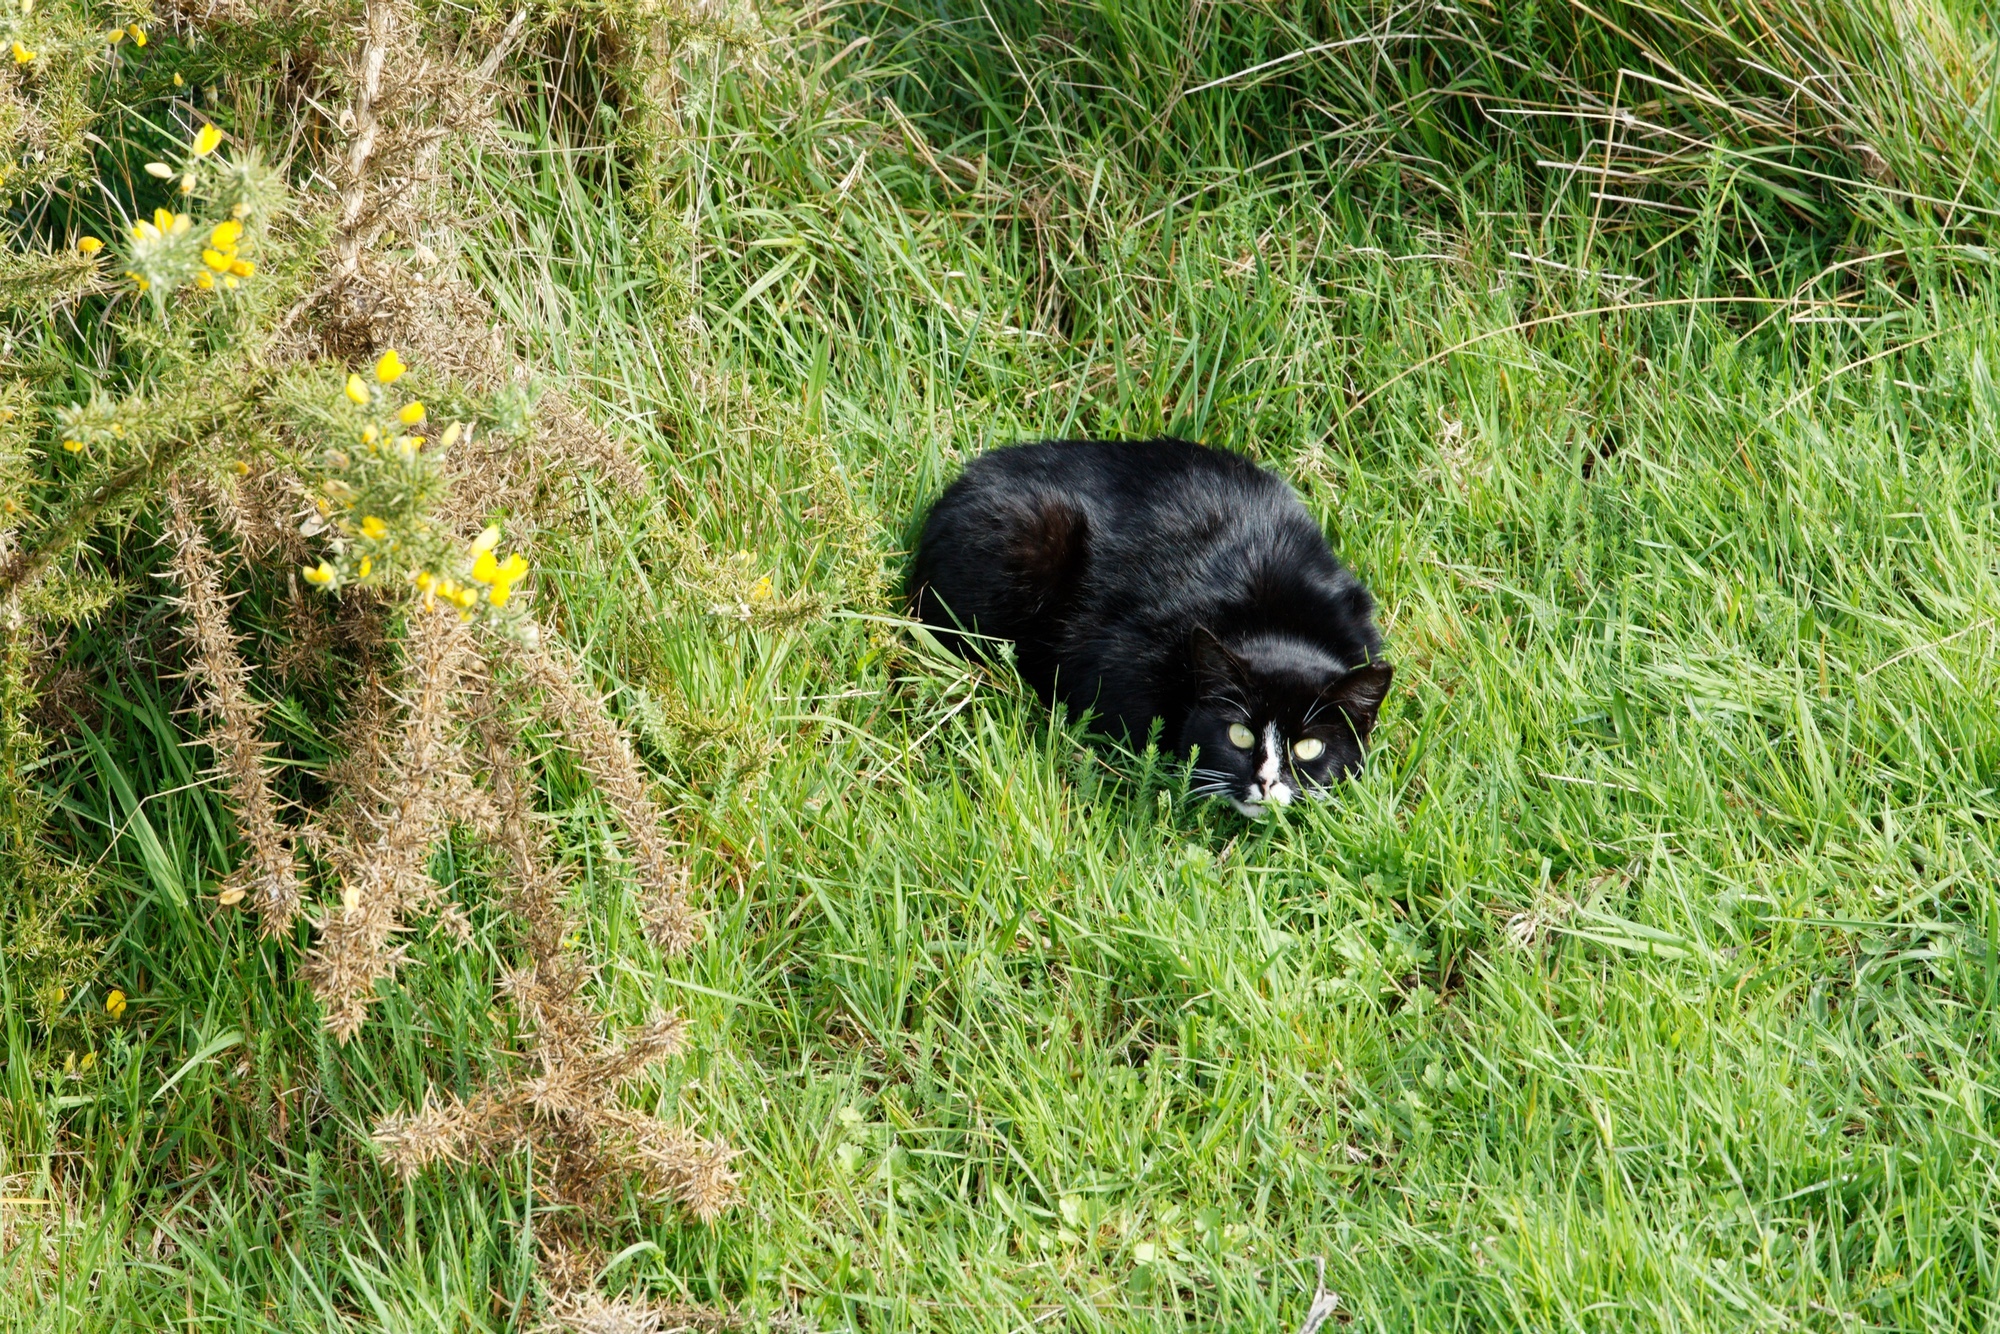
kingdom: Animalia
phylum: Chordata
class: Mammalia
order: Carnivora
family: Felidae
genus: Felis
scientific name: Felis catus
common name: Domestic cat
